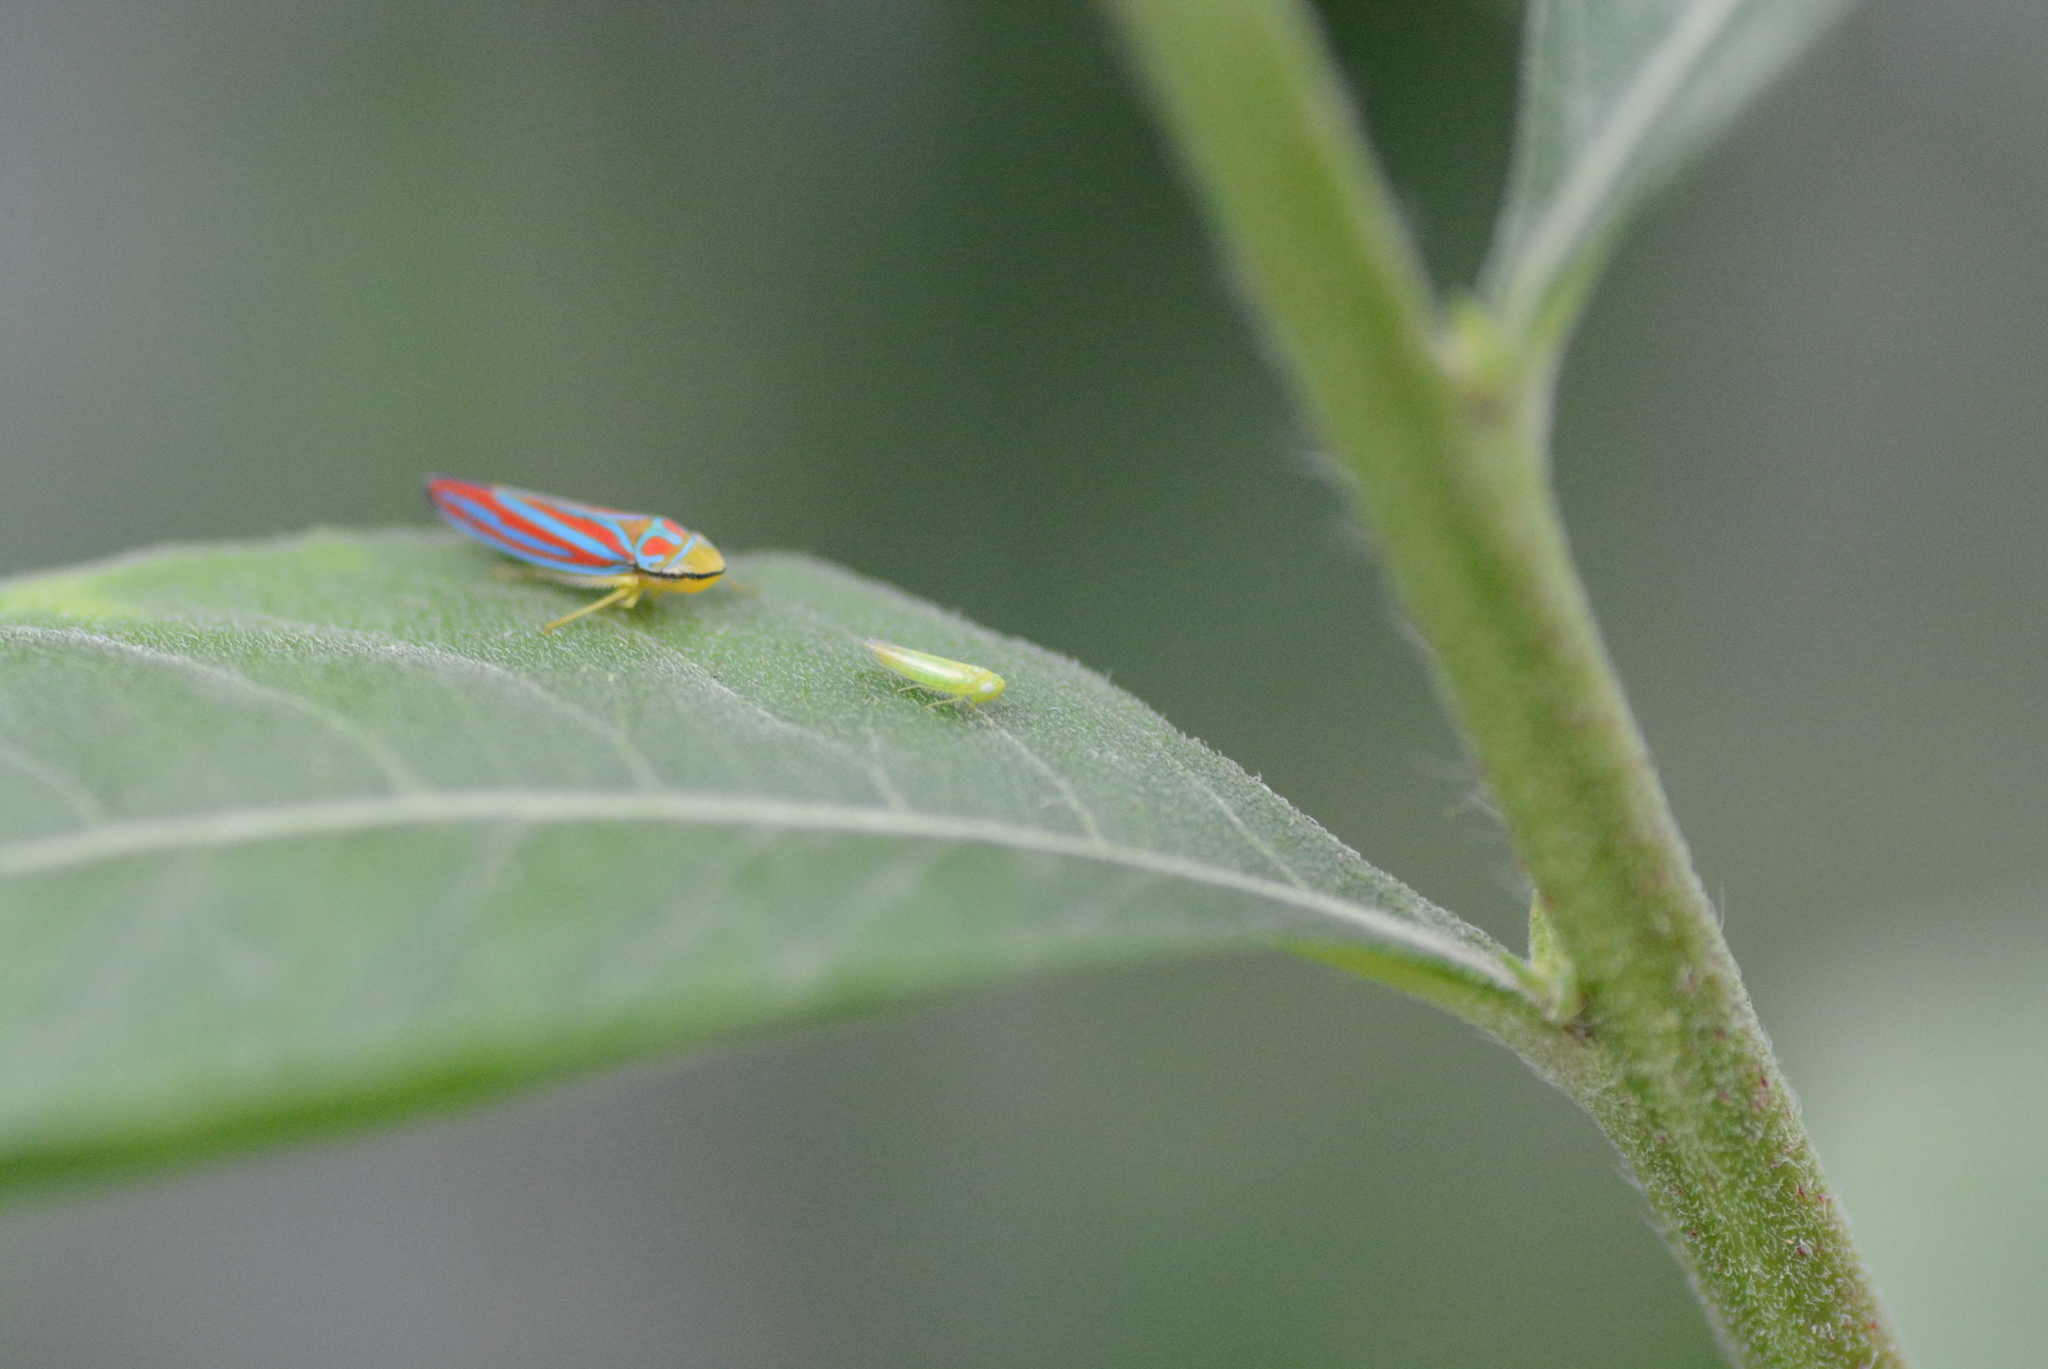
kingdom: Animalia
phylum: Arthropoda
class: Insecta
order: Hemiptera
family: Cicadellidae
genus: Graphocephala
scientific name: Graphocephala coccinea
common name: Candy-striped leafhopper
